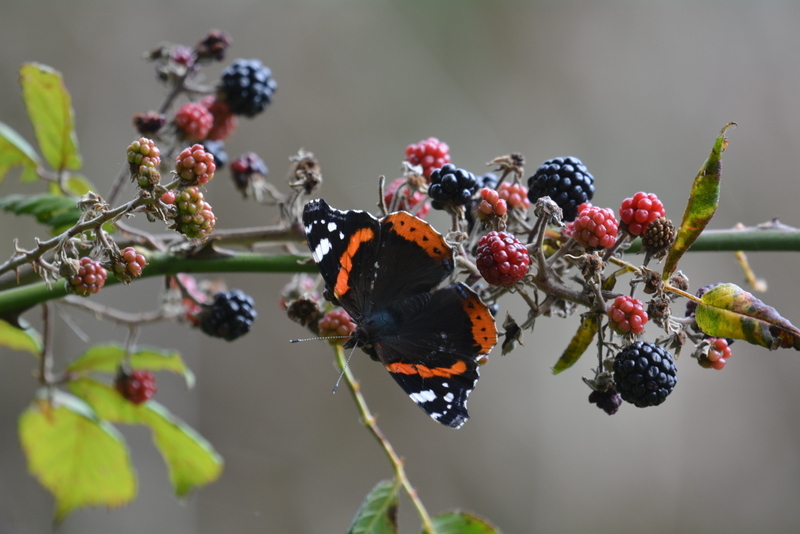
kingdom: Animalia
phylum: Arthropoda
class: Insecta
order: Lepidoptera
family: Nymphalidae
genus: Vanessa
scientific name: Vanessa atalanta
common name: Red admiral
